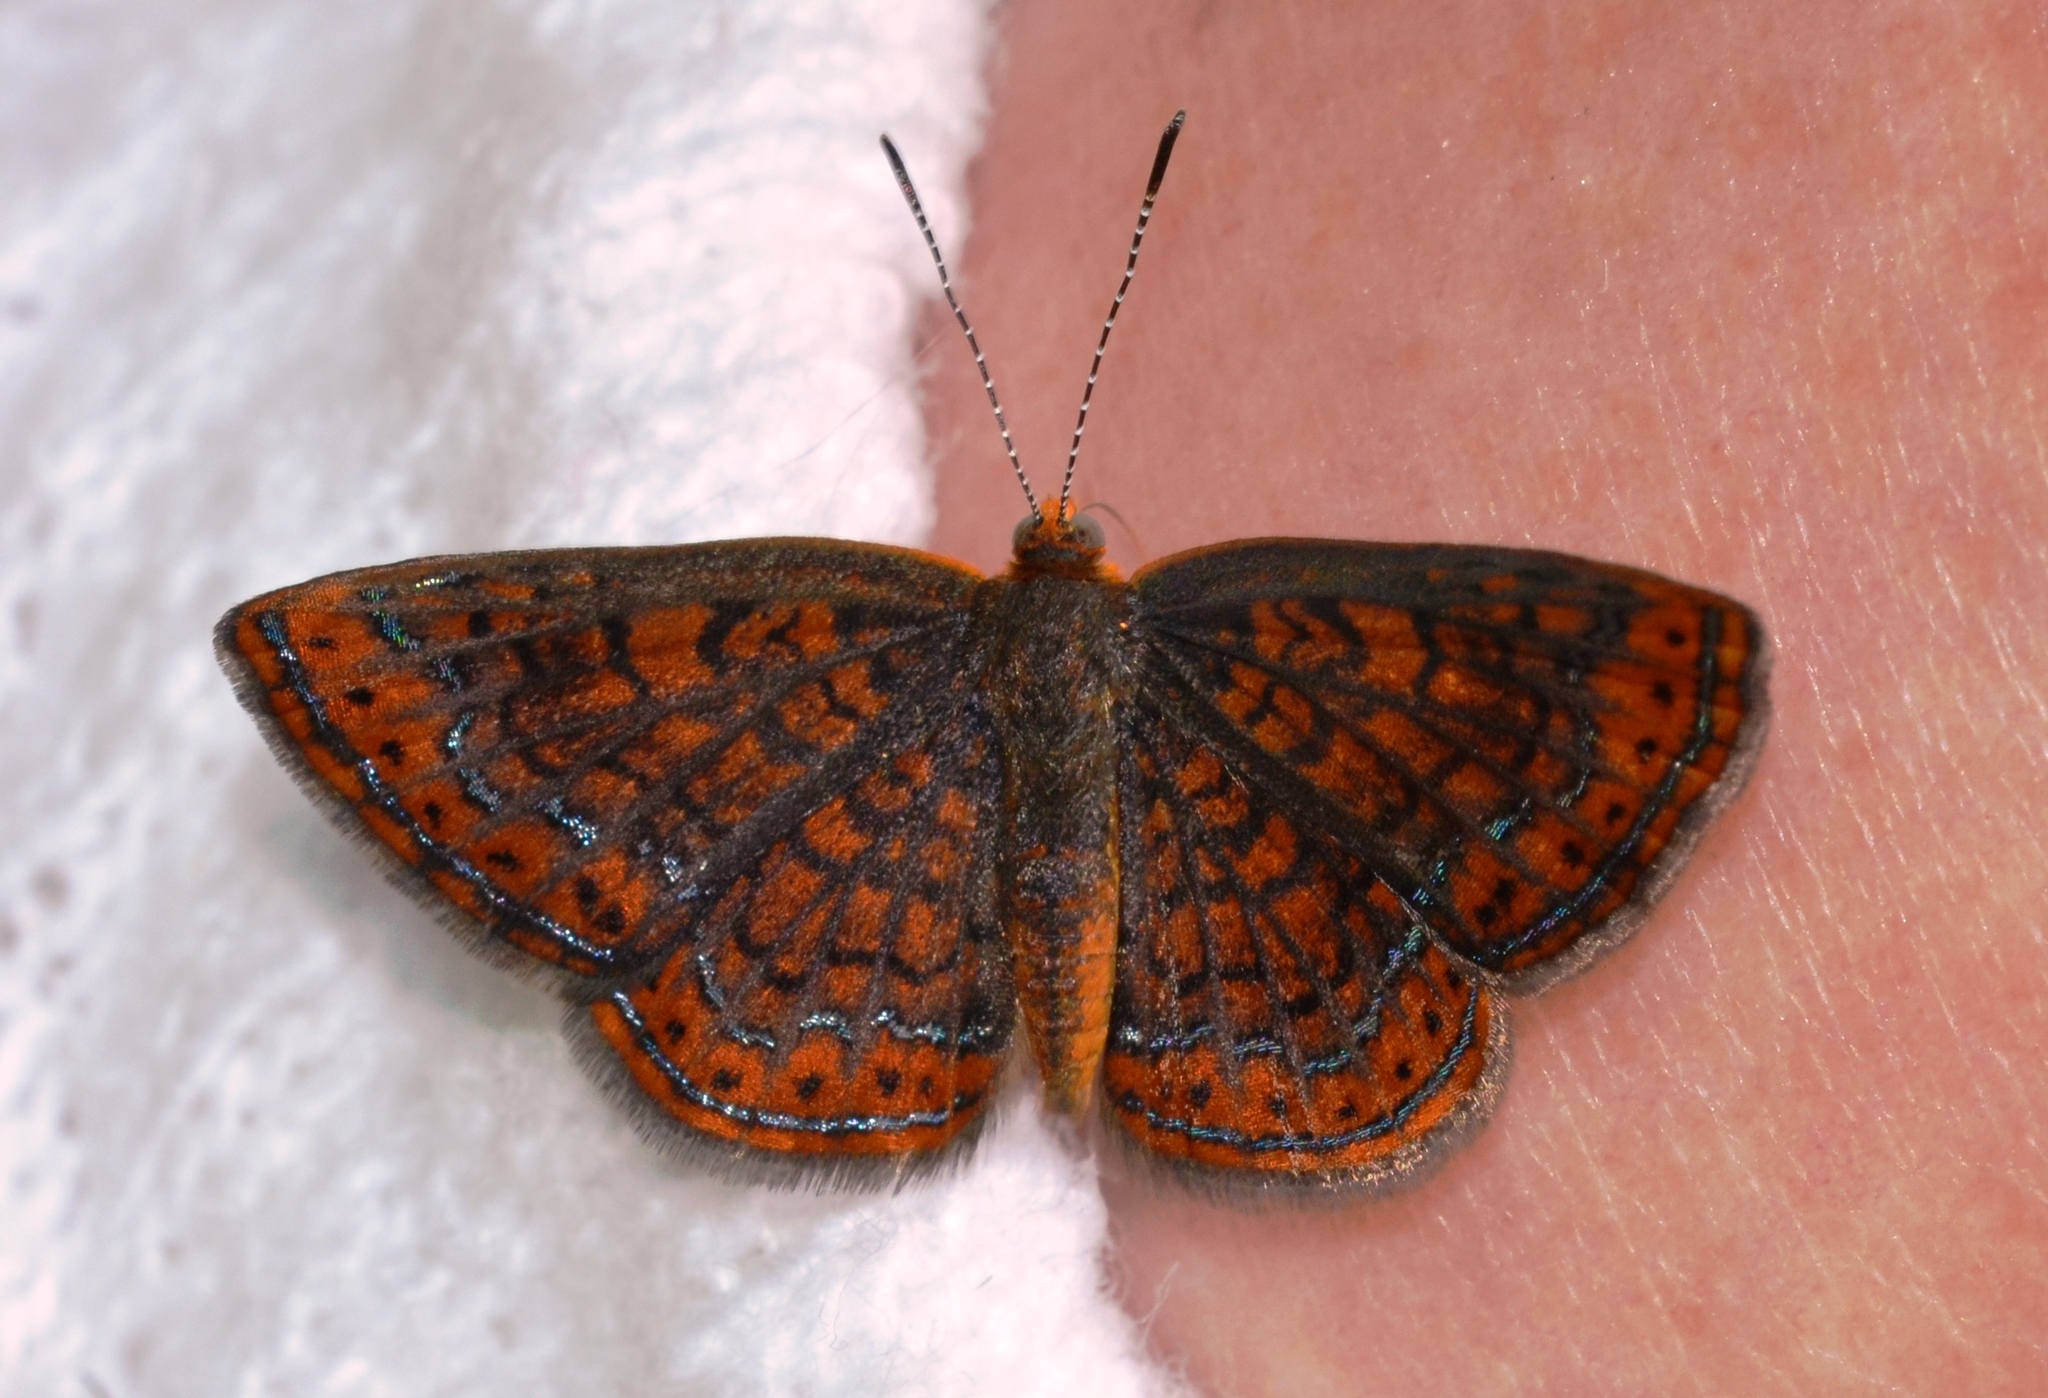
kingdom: Animalia
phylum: Arthropoda
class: Insecta
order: Lepidoptera
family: Lycaenidae
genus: Emesis
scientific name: Emesis muticum
